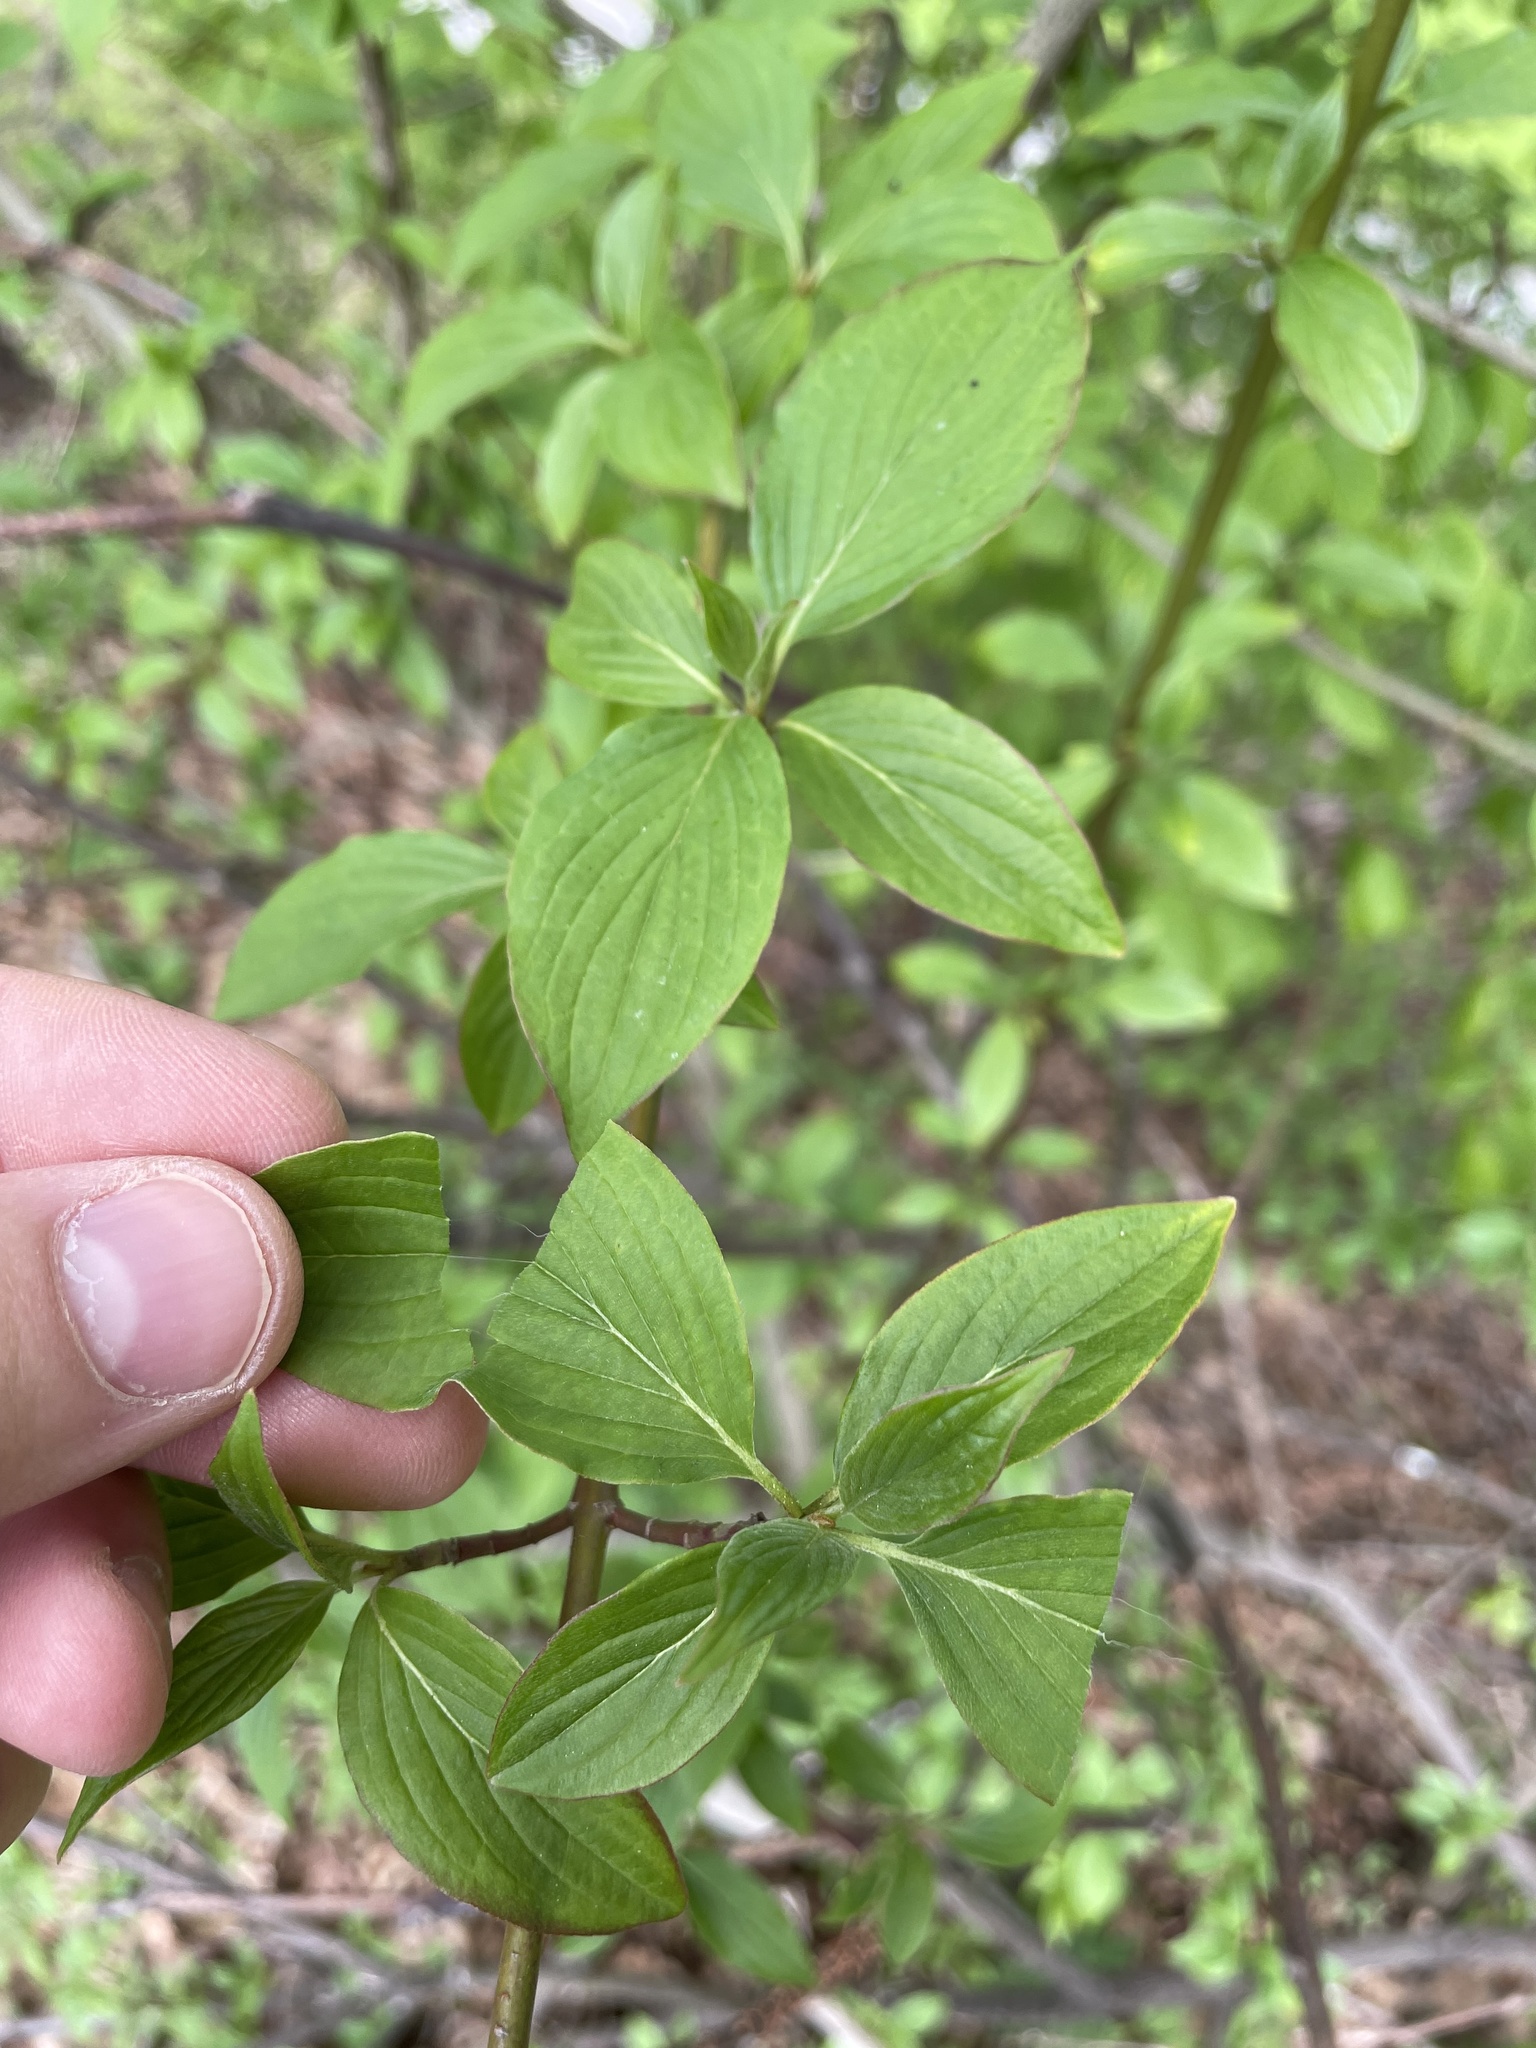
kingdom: Plantae
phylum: Tracheophyta
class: Magnoliopsida
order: Cornales
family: Cornaceae
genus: Cornus
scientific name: Cornus sanguinea
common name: Dogwood
